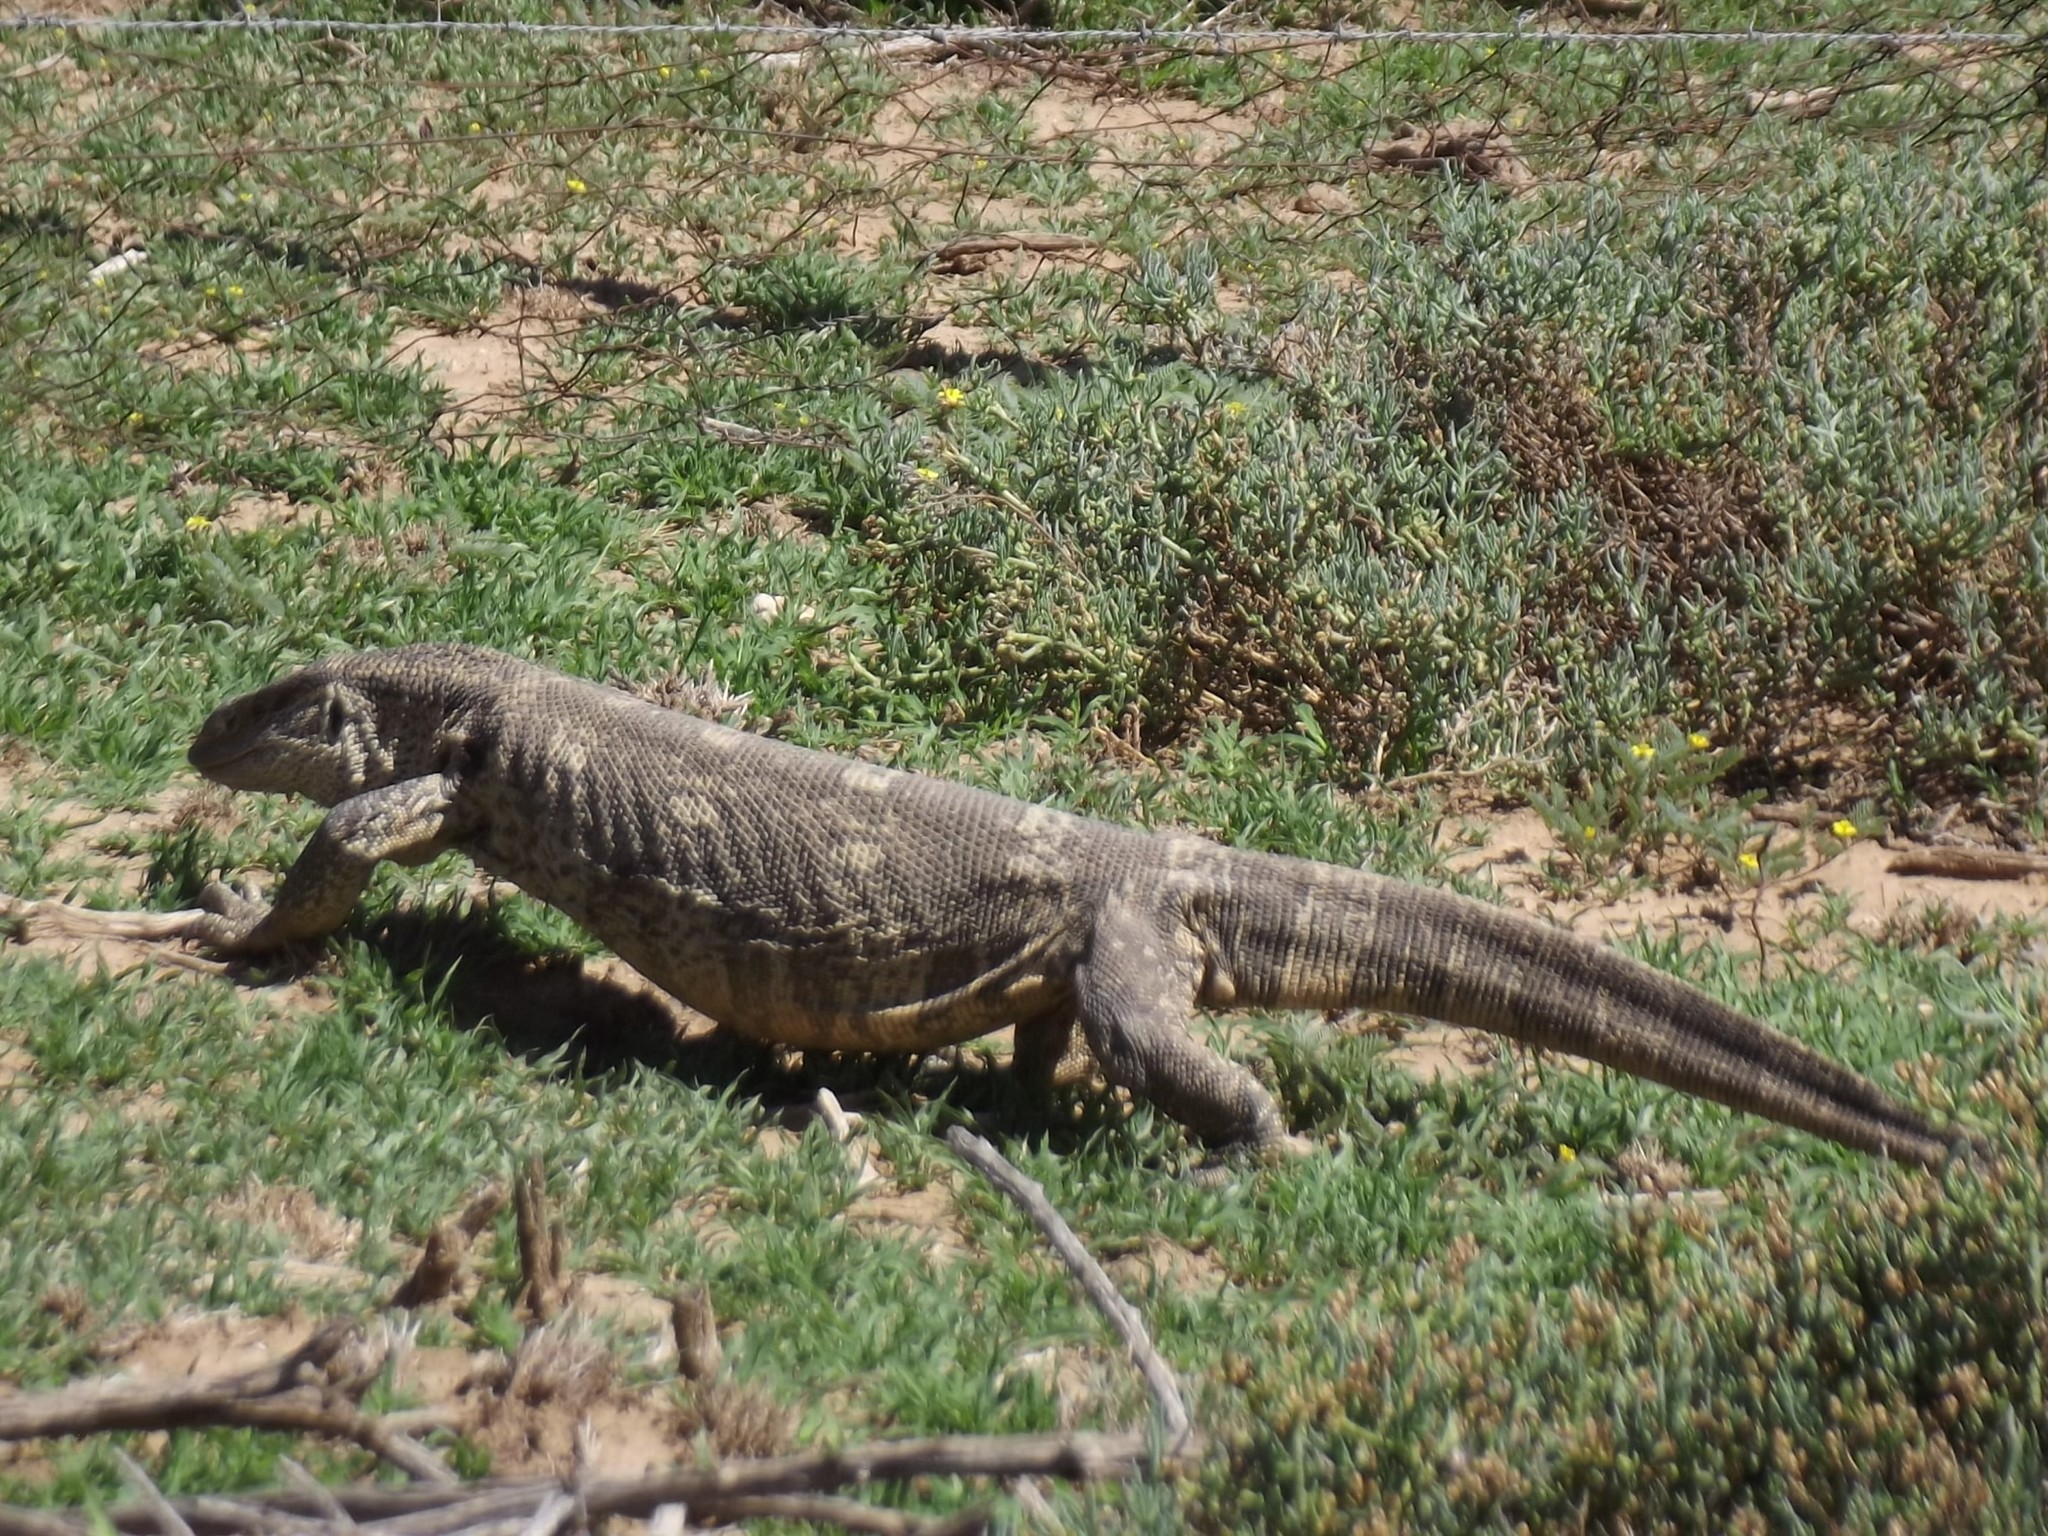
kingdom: Animalia
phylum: Chordata
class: Squamata
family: Varanidae
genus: Varanus
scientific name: Varanus albigularis
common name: White-throated monitor
